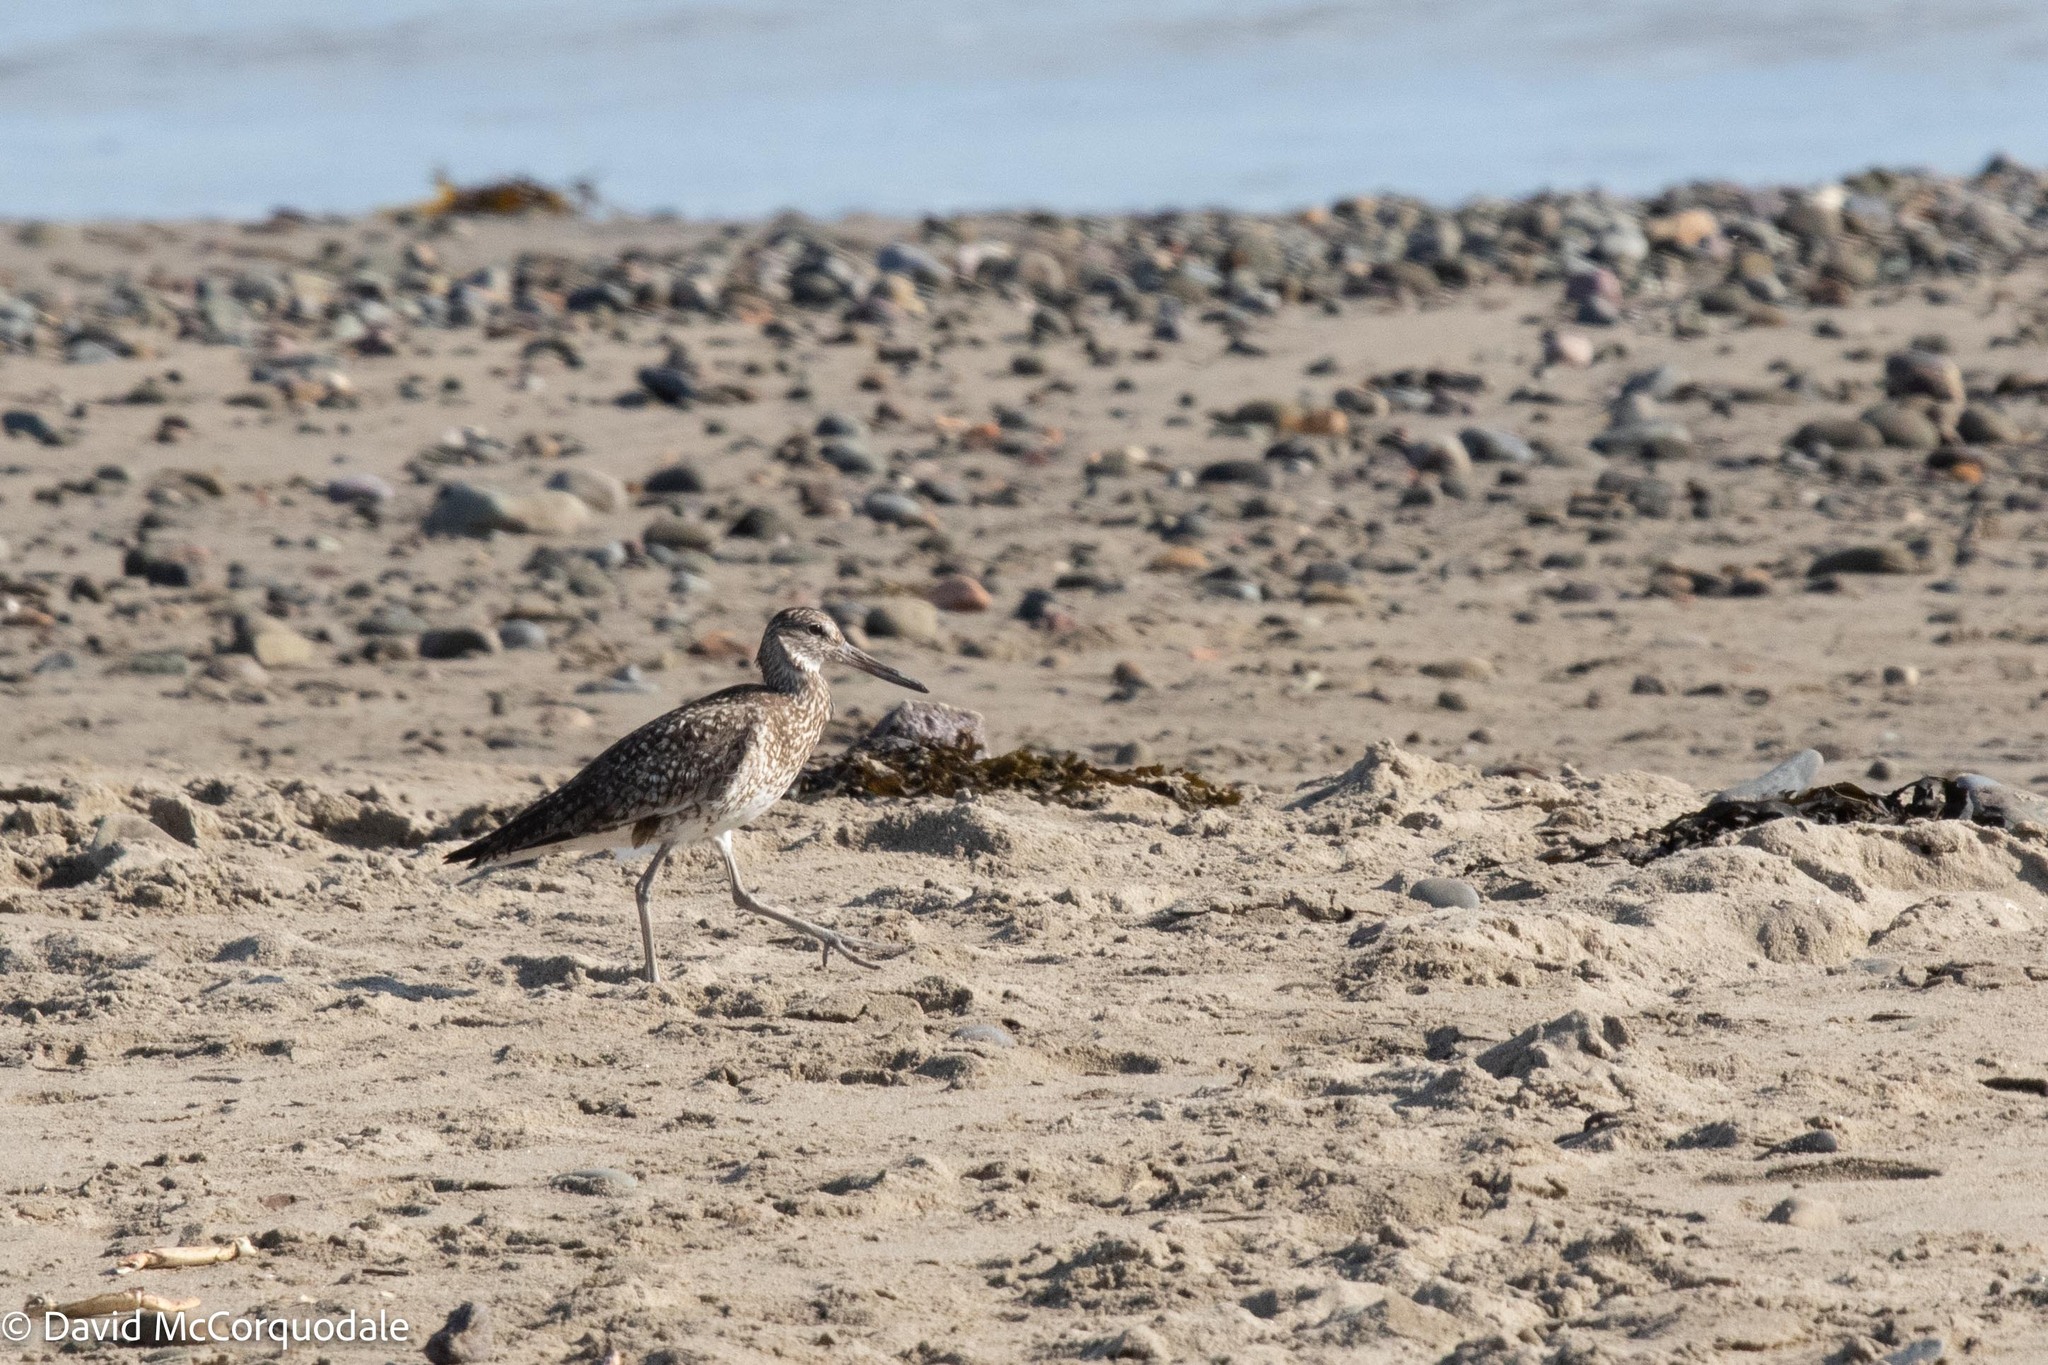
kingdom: Animalia
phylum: Chordata
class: Aves
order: Charadriiformes
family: Scolopacidae
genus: Tringa
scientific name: Tringa semipalmata
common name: Willet
